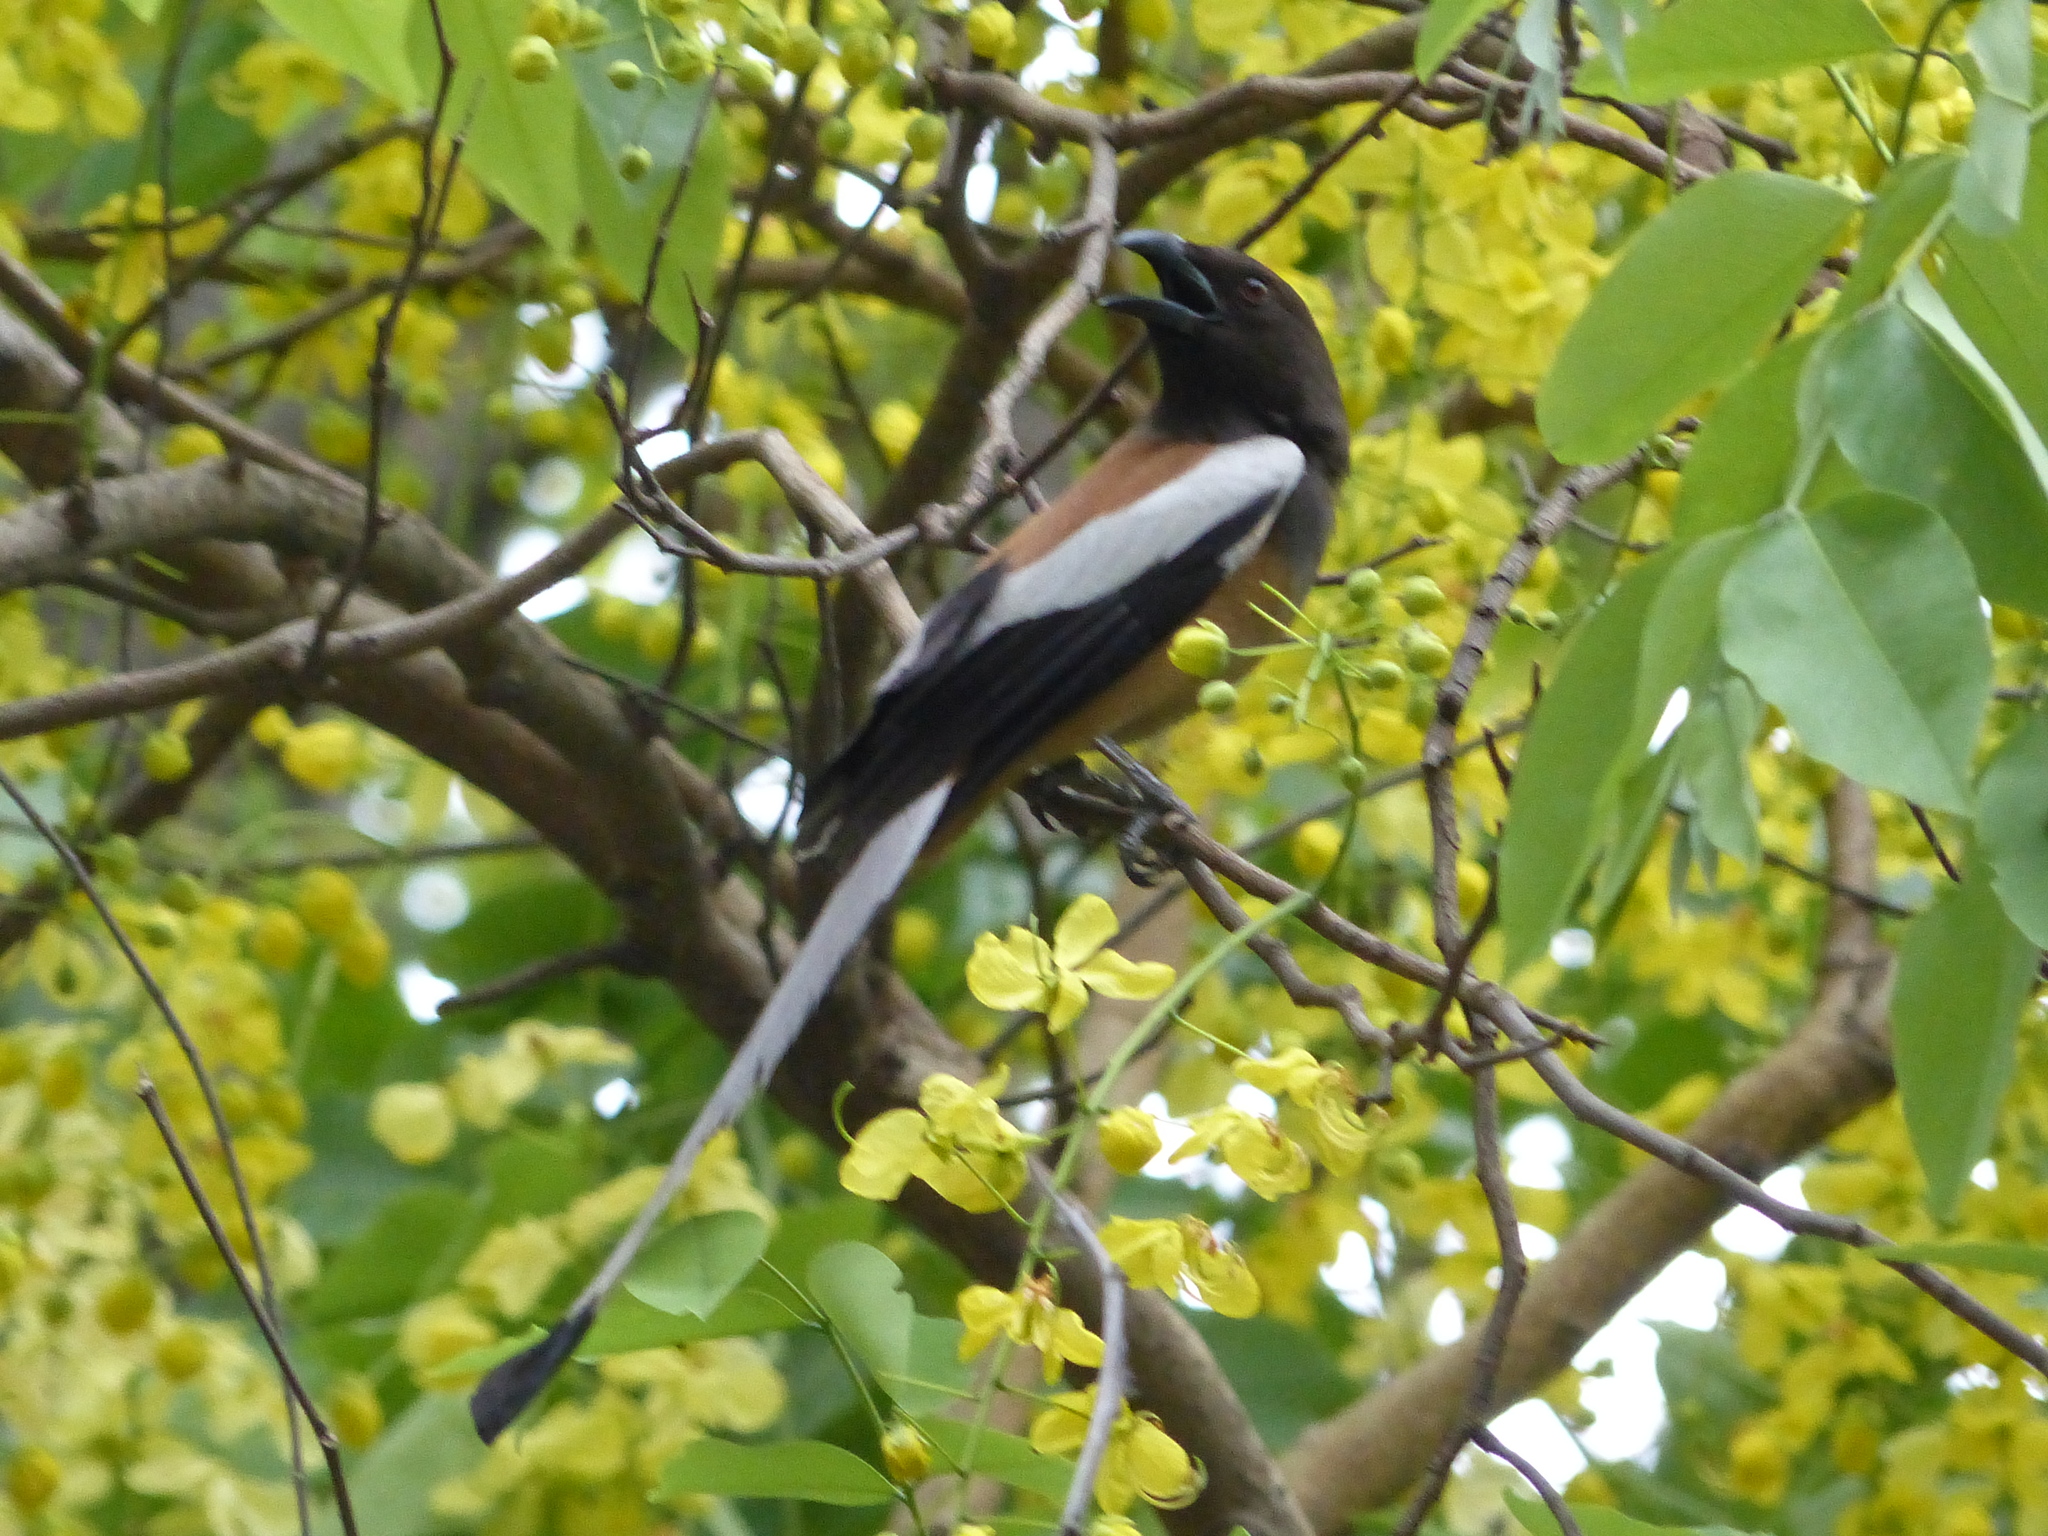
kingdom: Animalia
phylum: Chordata
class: Aves
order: Passeriformes
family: Corvidae
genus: Dendrocitta
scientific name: Dendrocitta vagabunda
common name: Rufous treepie
